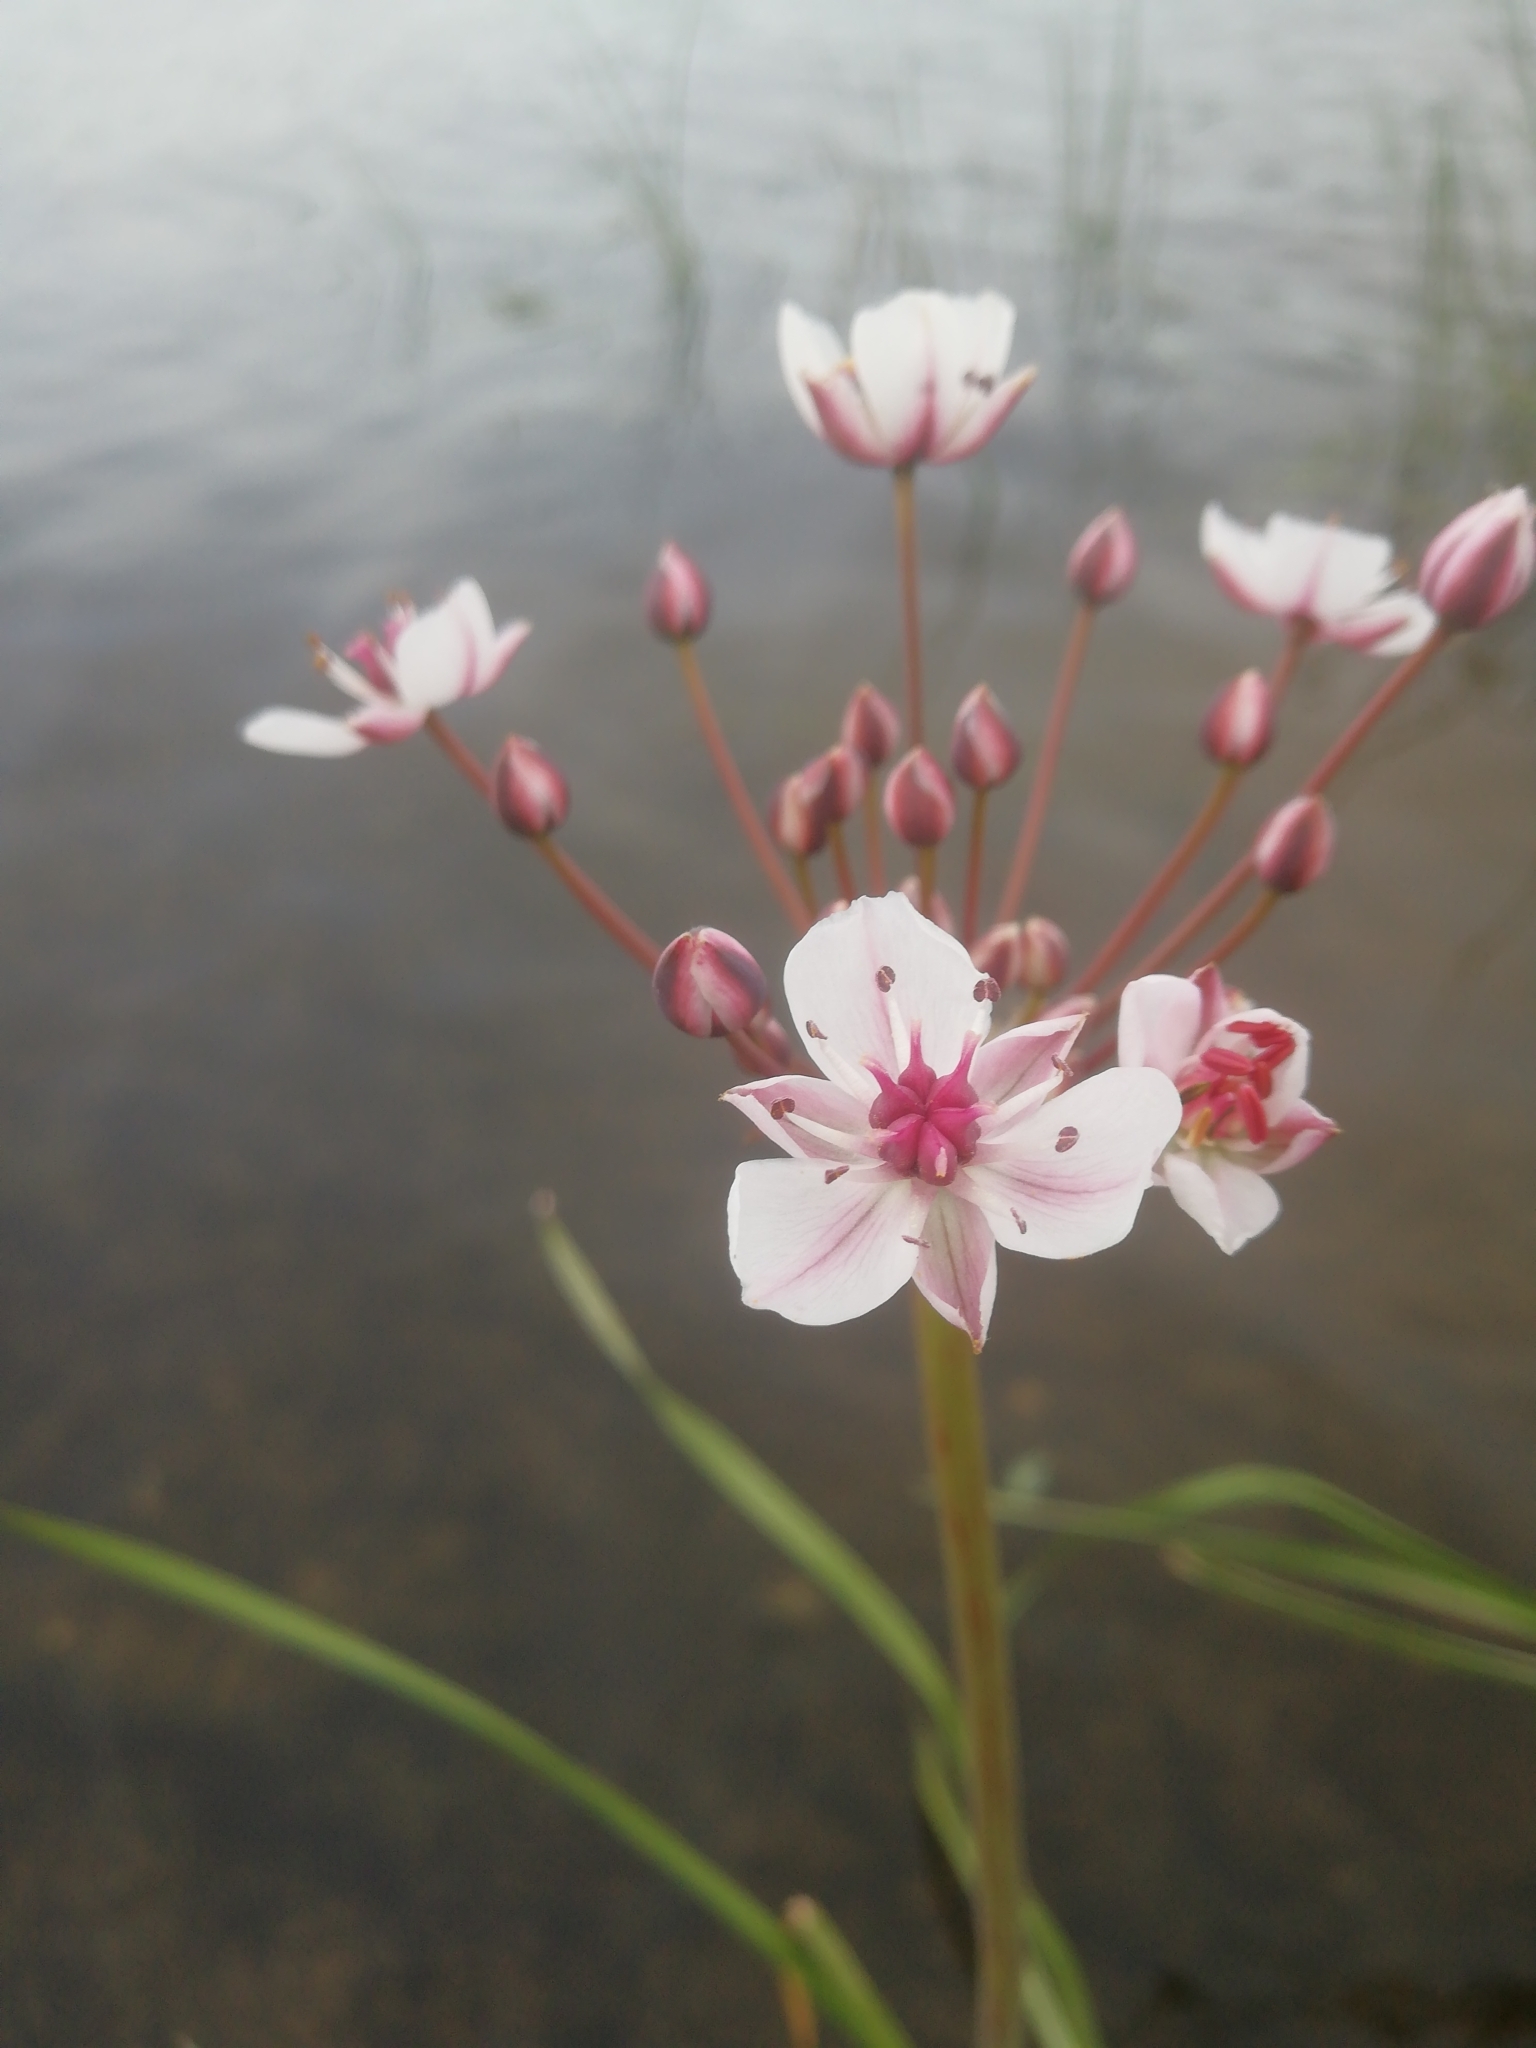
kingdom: Plantae
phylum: Tracheophyta
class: Liliopsida
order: Alismatales
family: Butomaceae
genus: Butomus
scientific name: Butomus umbellatus
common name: Flowering-rush
